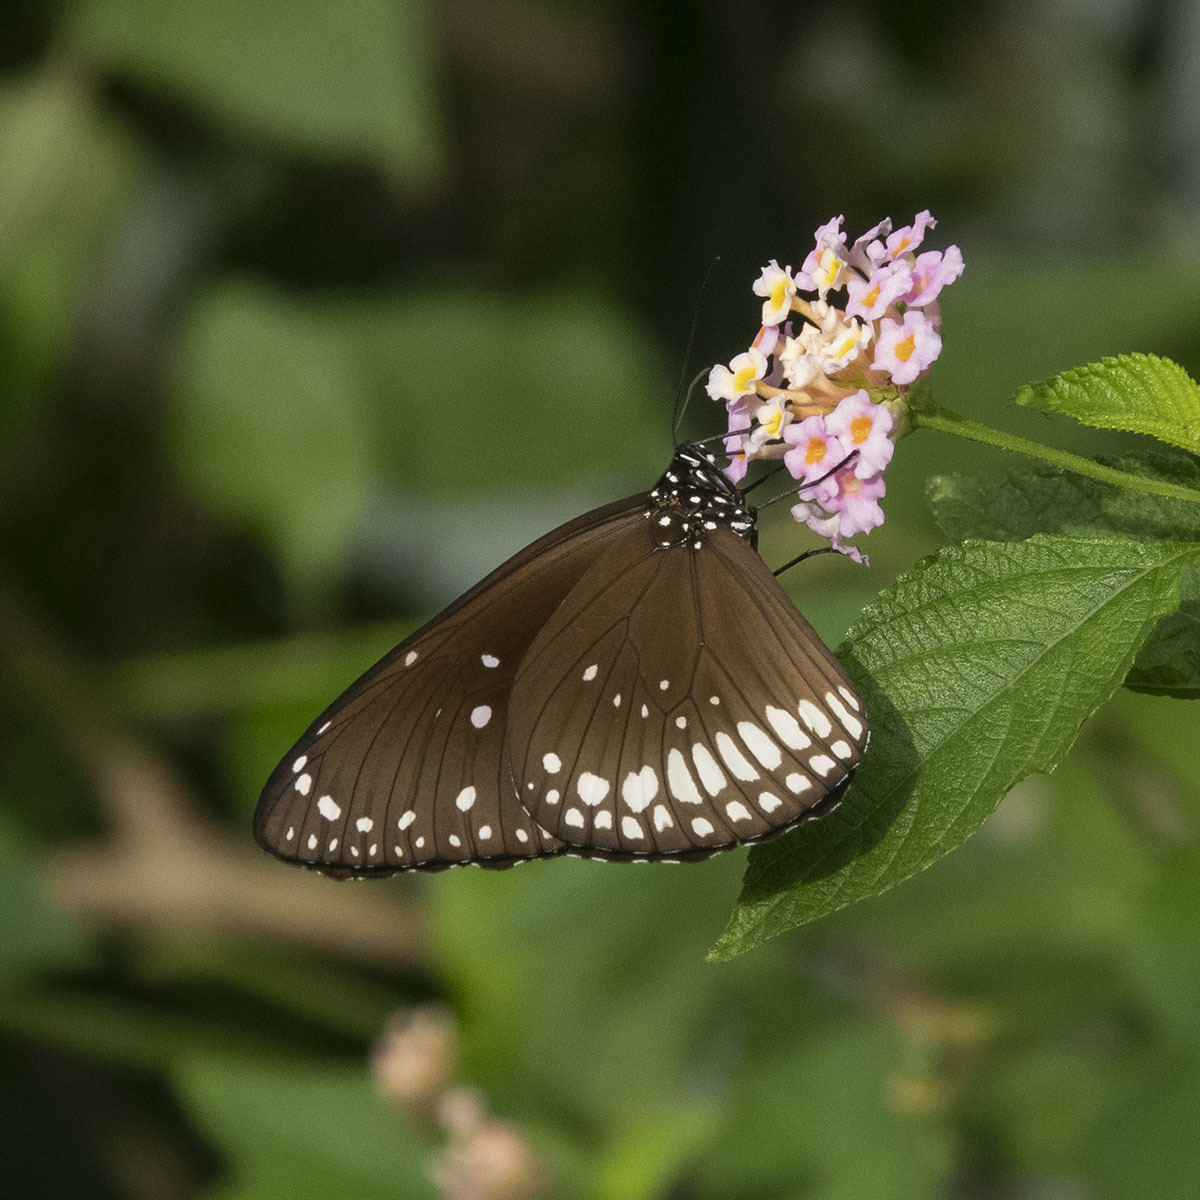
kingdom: Animalia
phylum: Arthropoda
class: Insecta
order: Lepidoptera
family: Nymphalidae
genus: Euploea
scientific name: Euploea core
